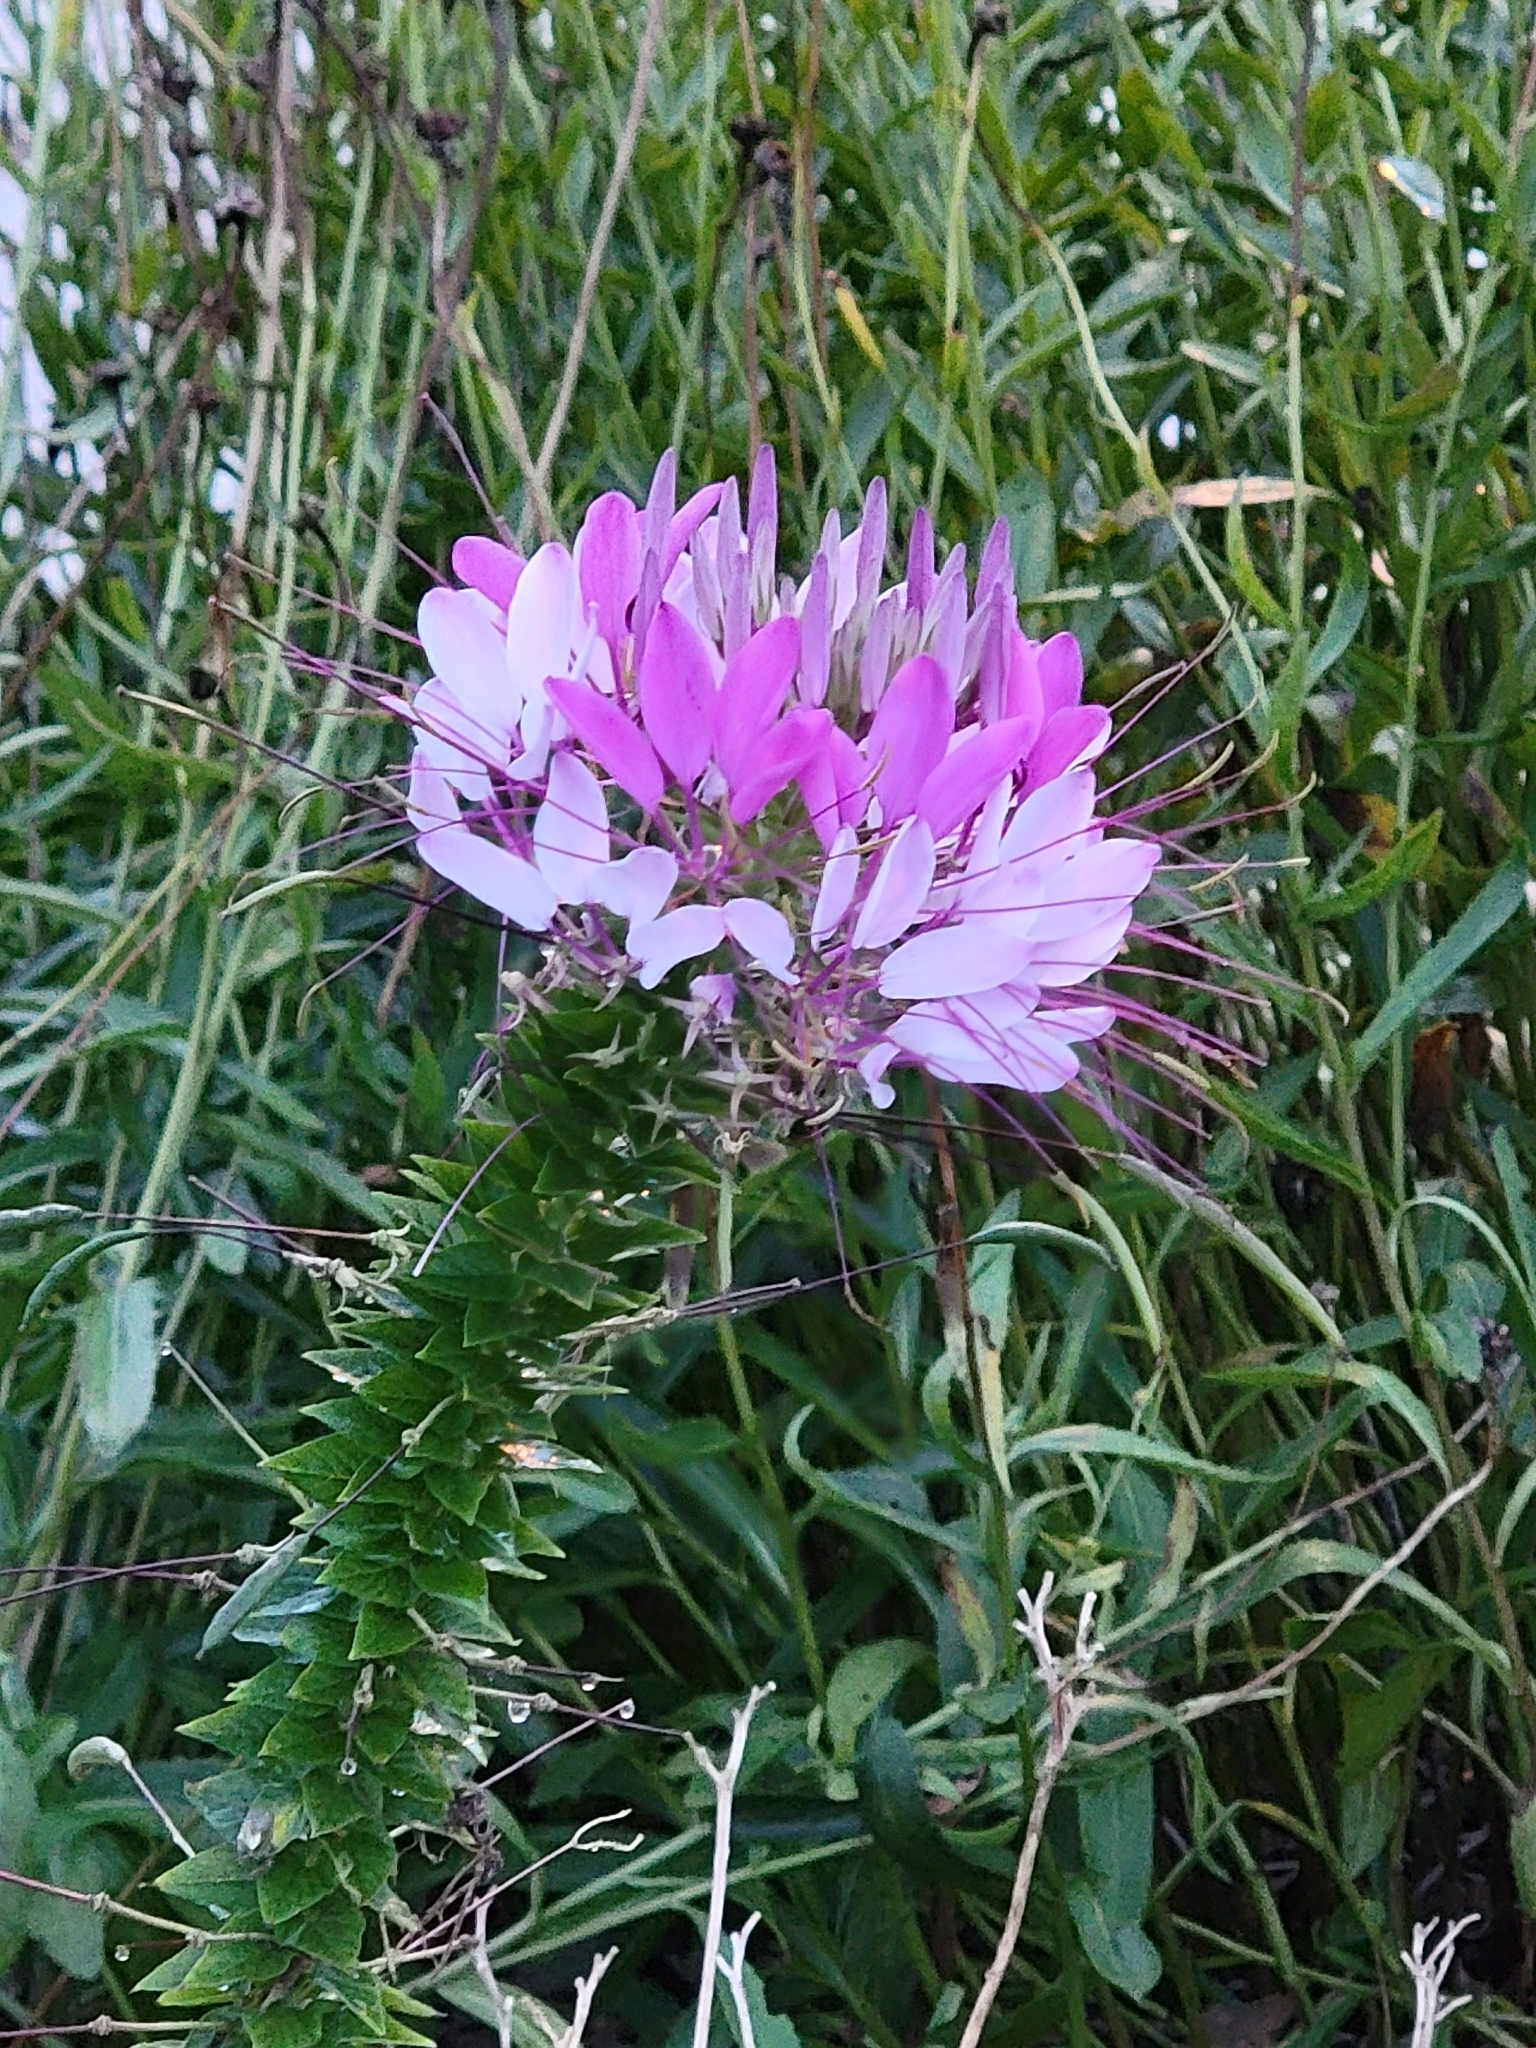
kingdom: Plantae
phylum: Tracheophyta
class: Magnoliopsida
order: Brassicales
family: Cleomaceae
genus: Tarenaya
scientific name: Tarenaya houtteana
